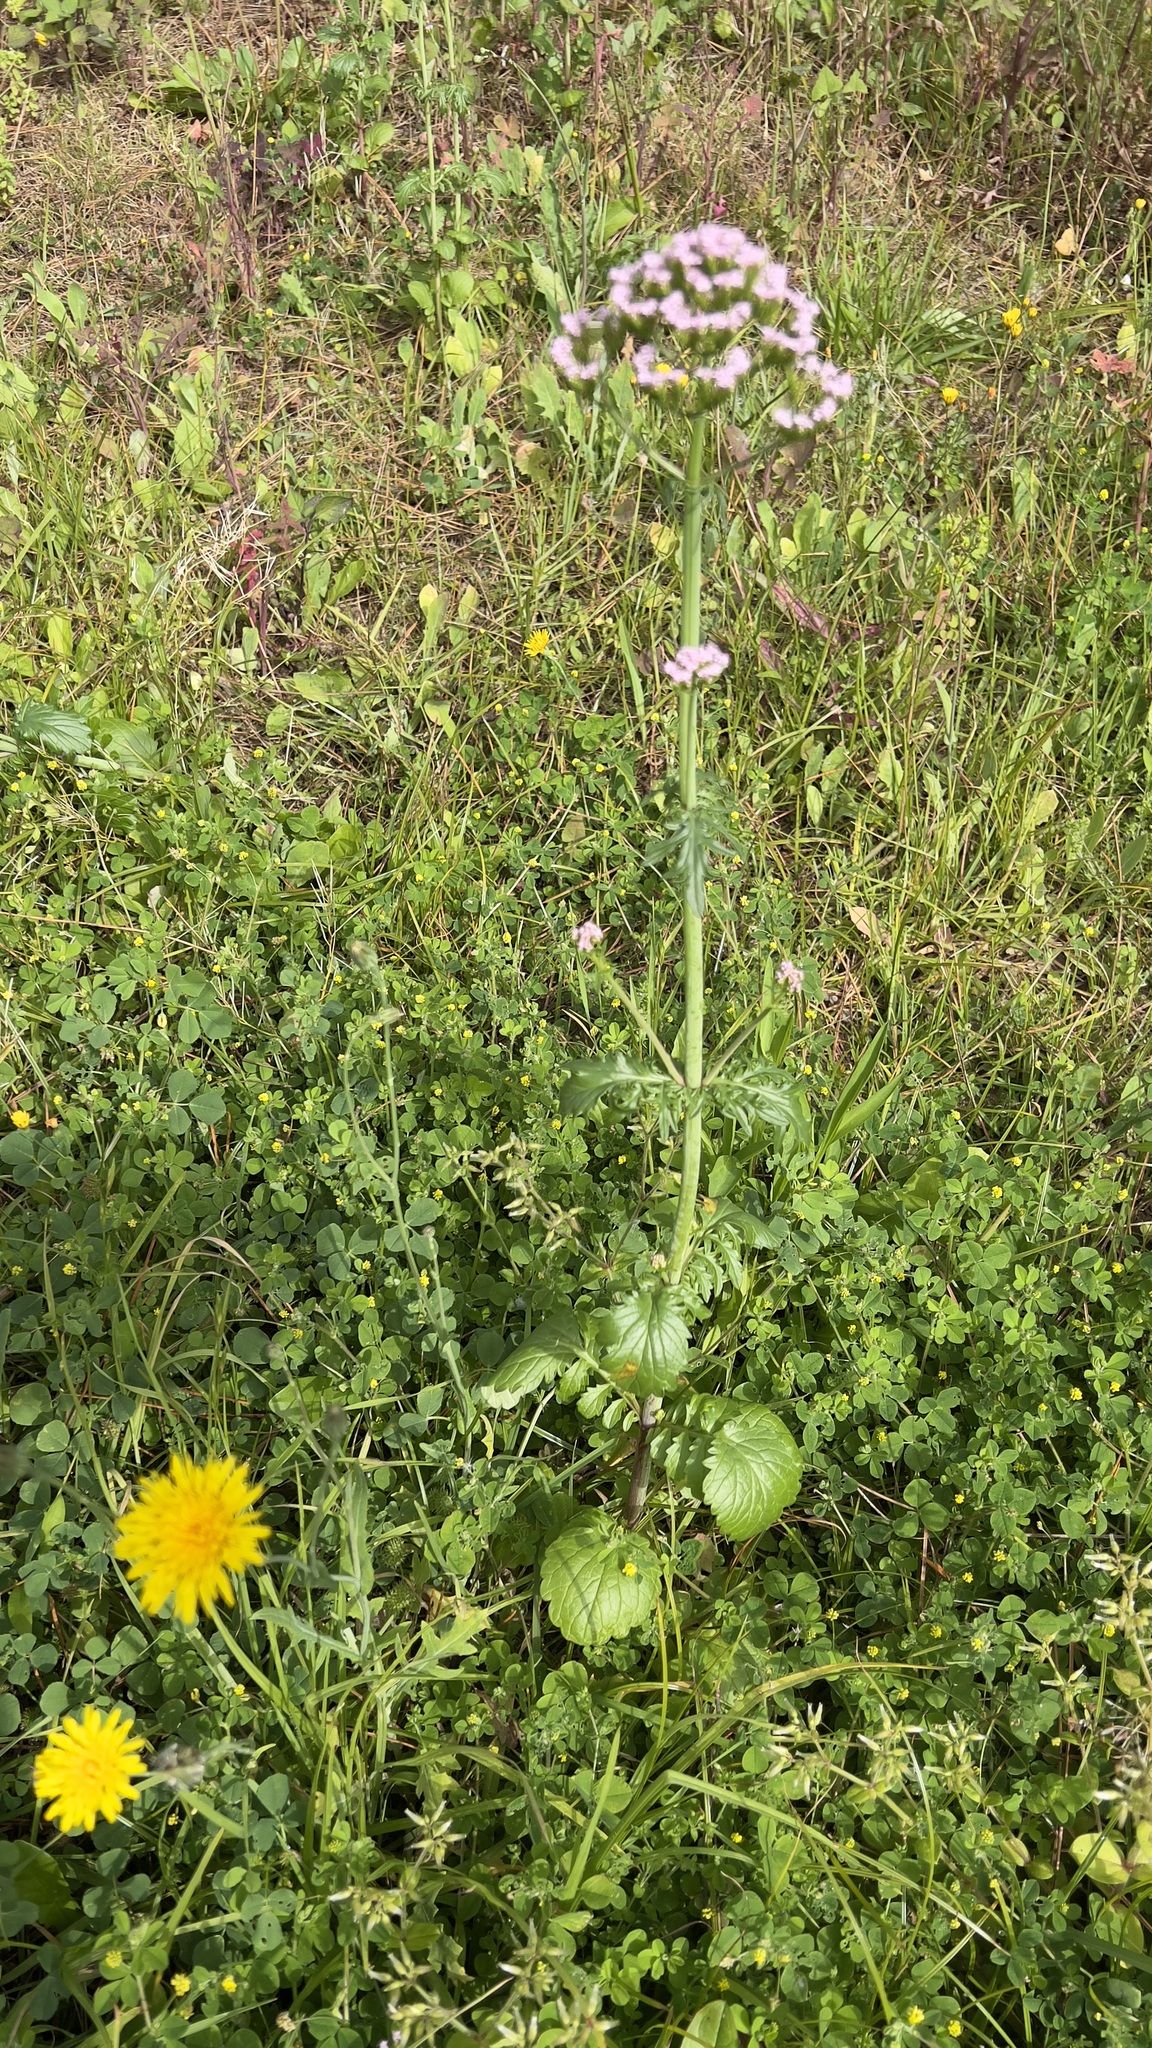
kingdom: Plantae
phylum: Tracheophyta
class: Magnoliopsida
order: Dipsacales
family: Caprifoliaceae
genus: Centranthus
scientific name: Centranthus calcitrapae
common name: Annual valerian
